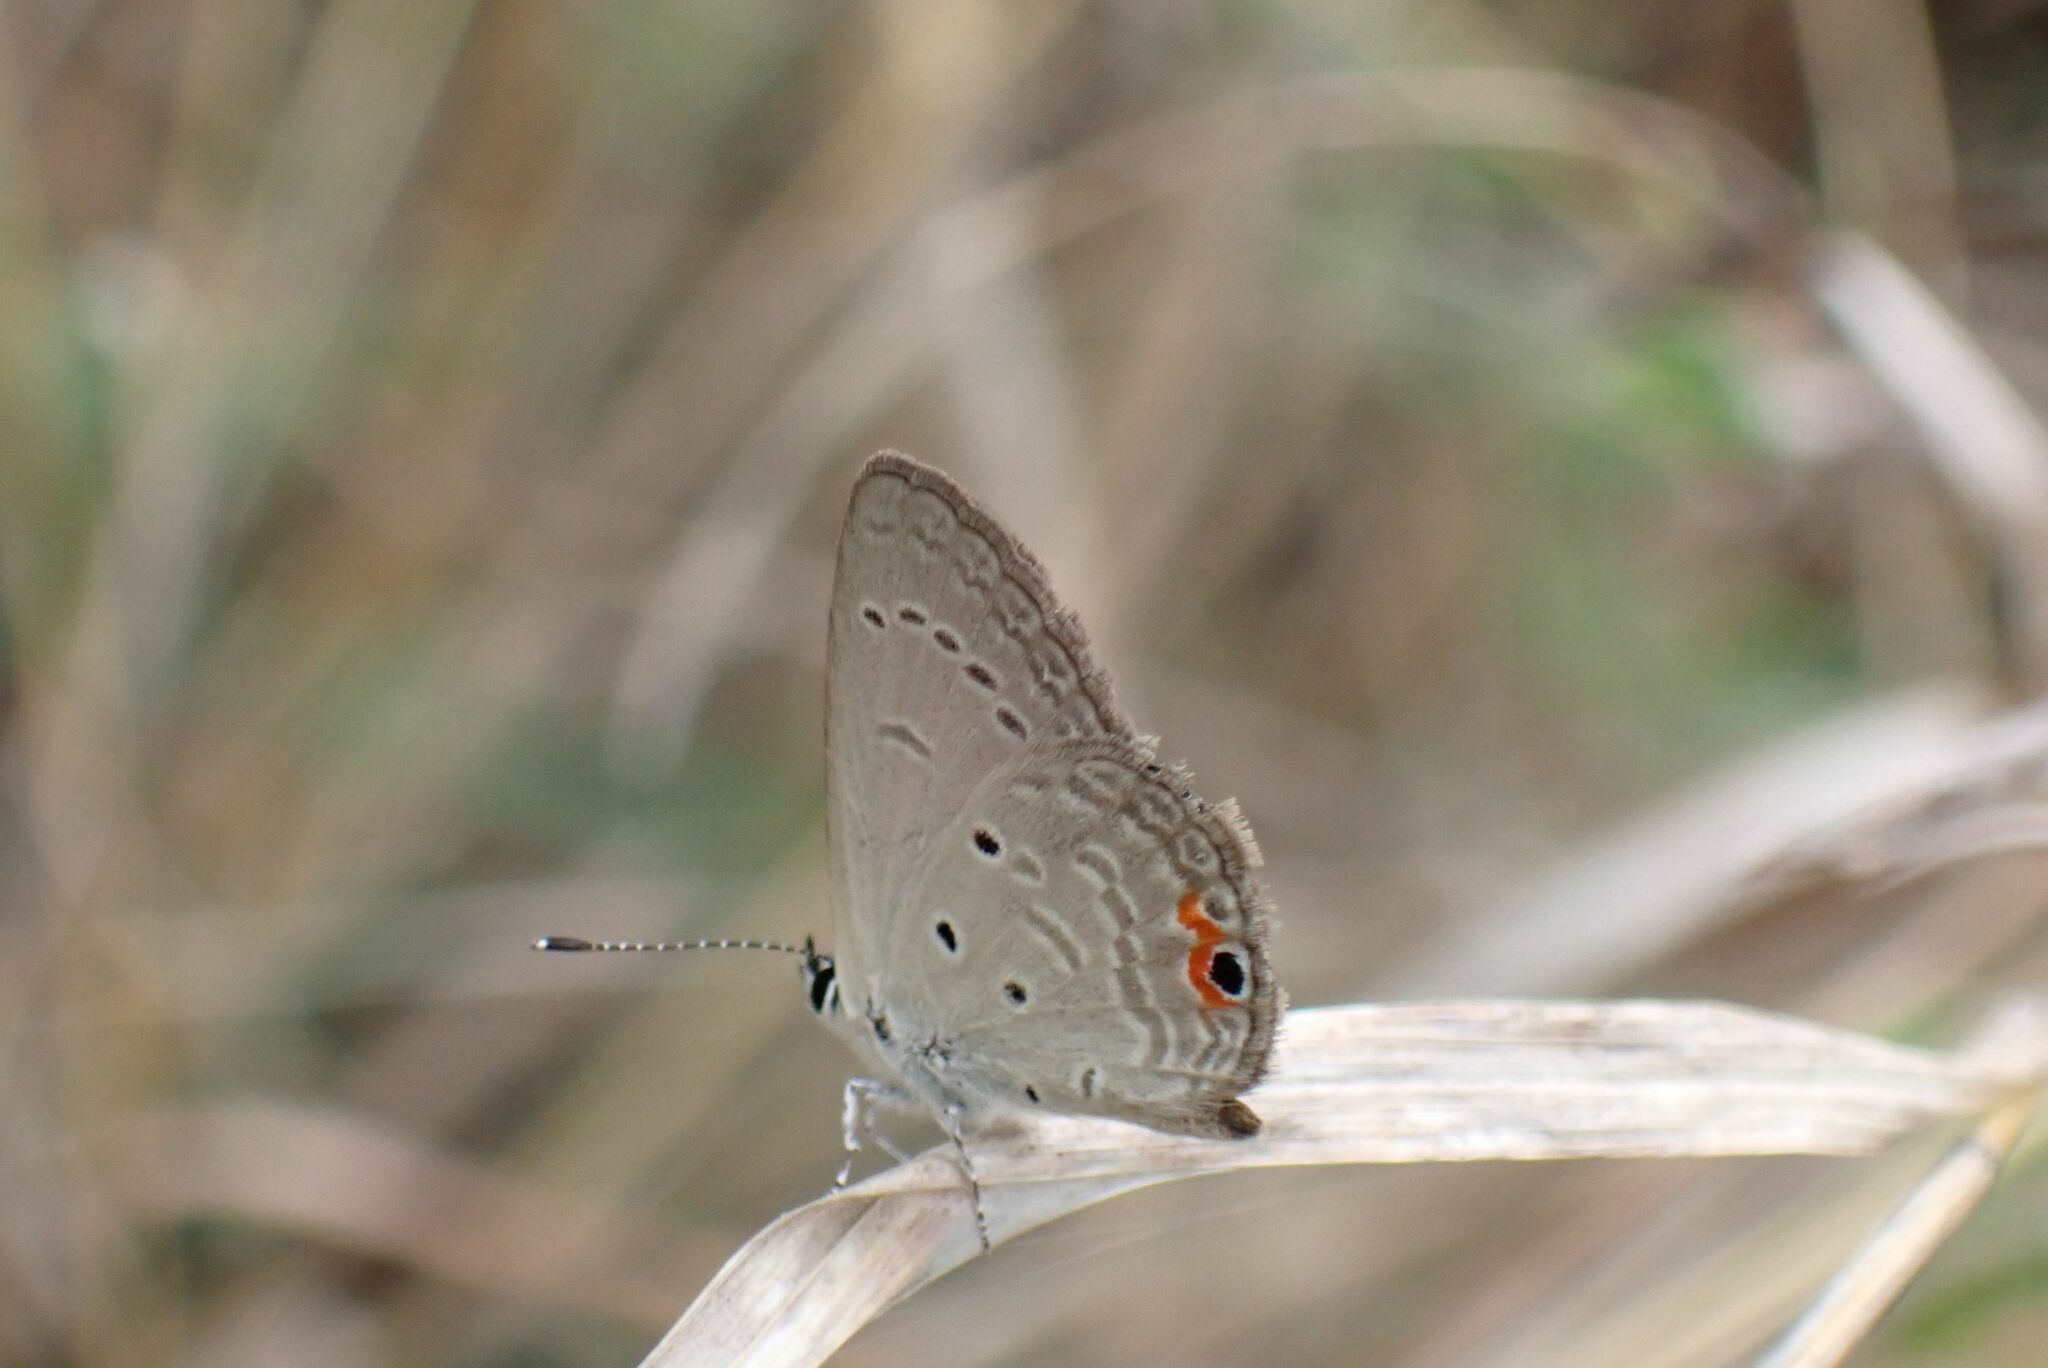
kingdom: Animalia
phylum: Arthropoda
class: Insecta
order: Lepidoptera
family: Lycaenidae
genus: Eicochrysops
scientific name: Eicochrysops messapus
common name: Cupreous blue
